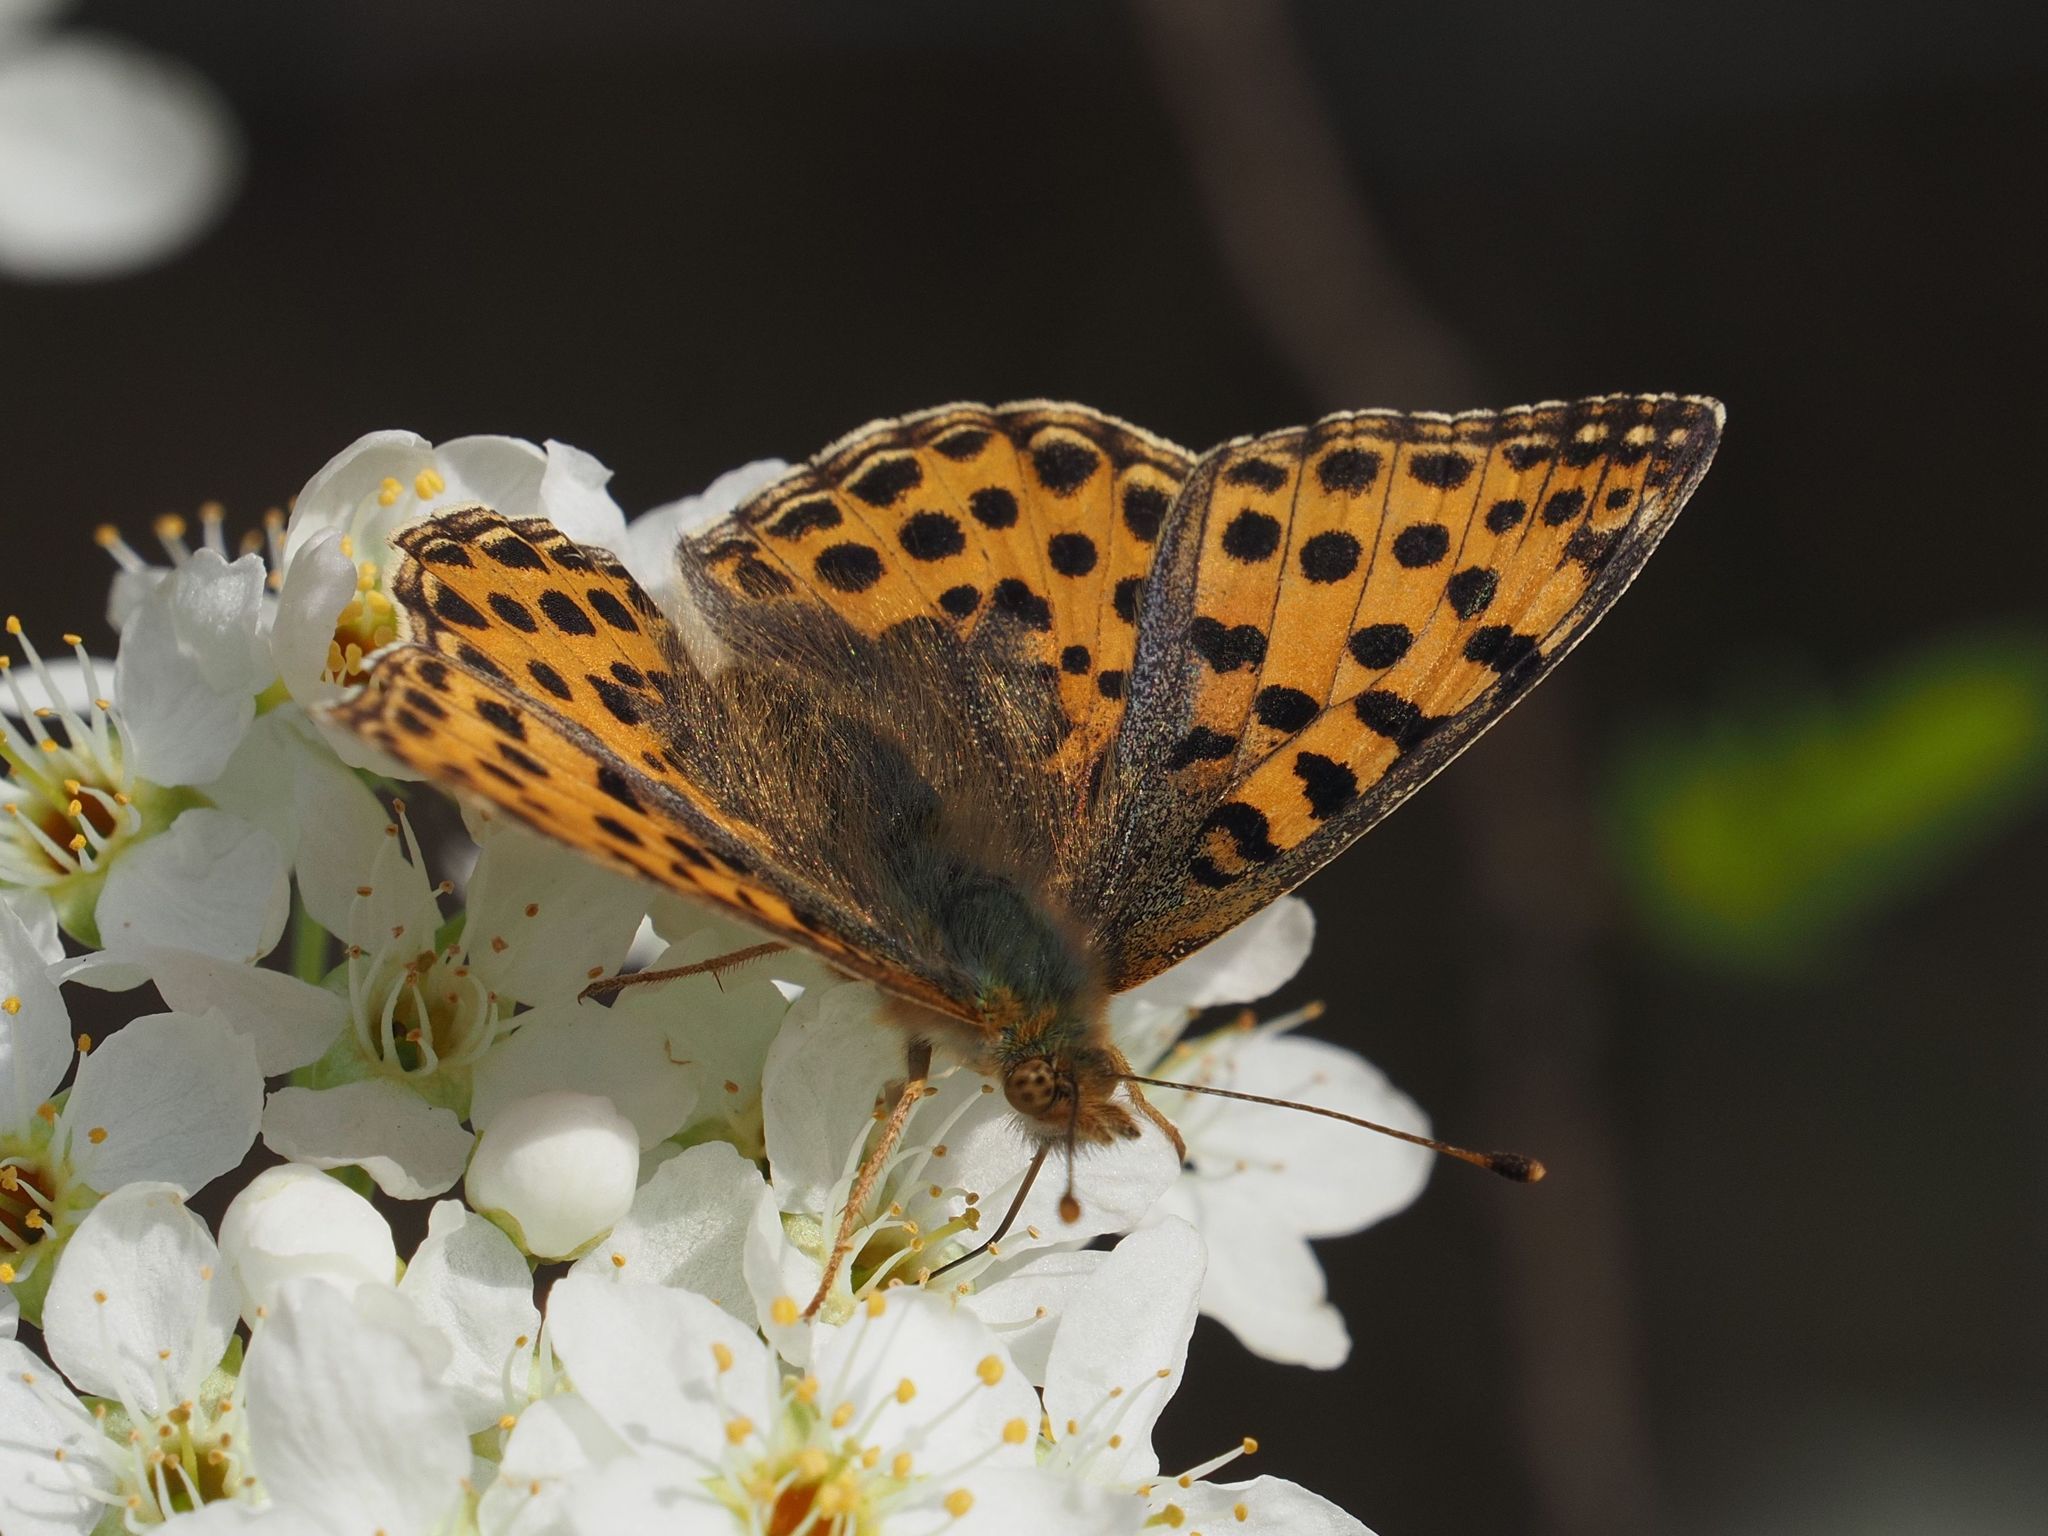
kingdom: Animalia
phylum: Arthropoda
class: Insecta
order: Lepidoptera
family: Nymphalidae
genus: Issoria
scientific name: Issoria lathonia
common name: Queen of spain fritillary
